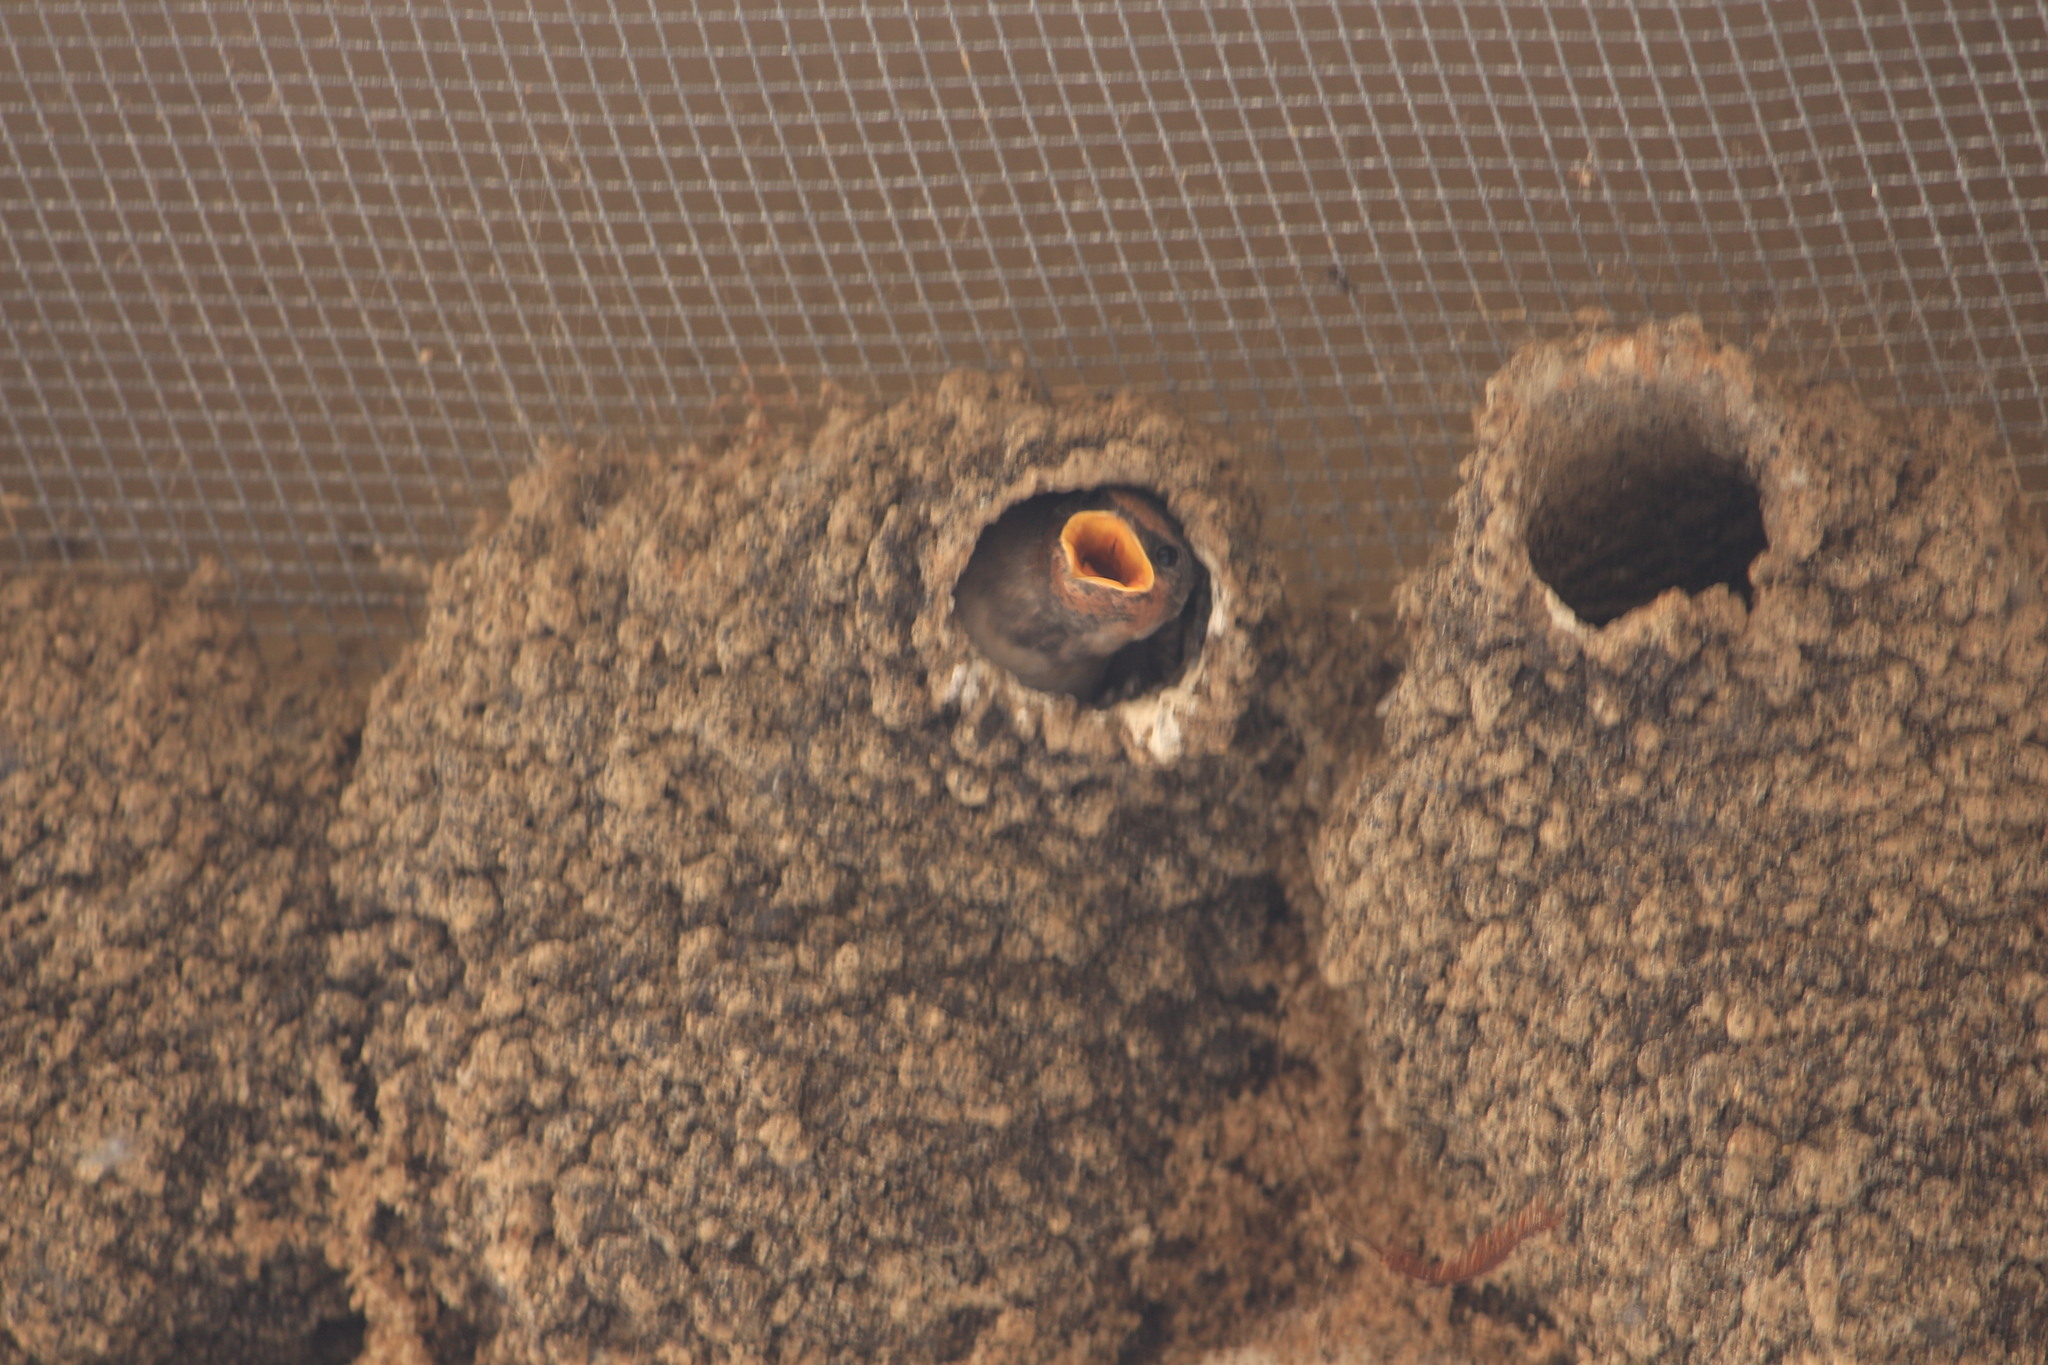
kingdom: Animalia
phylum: Chordata
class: Aves
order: Passeriformes
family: Hirundinidae
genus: Petrochelidon
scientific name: Petrochelidon pyrrhonota
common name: American cliff swallow
